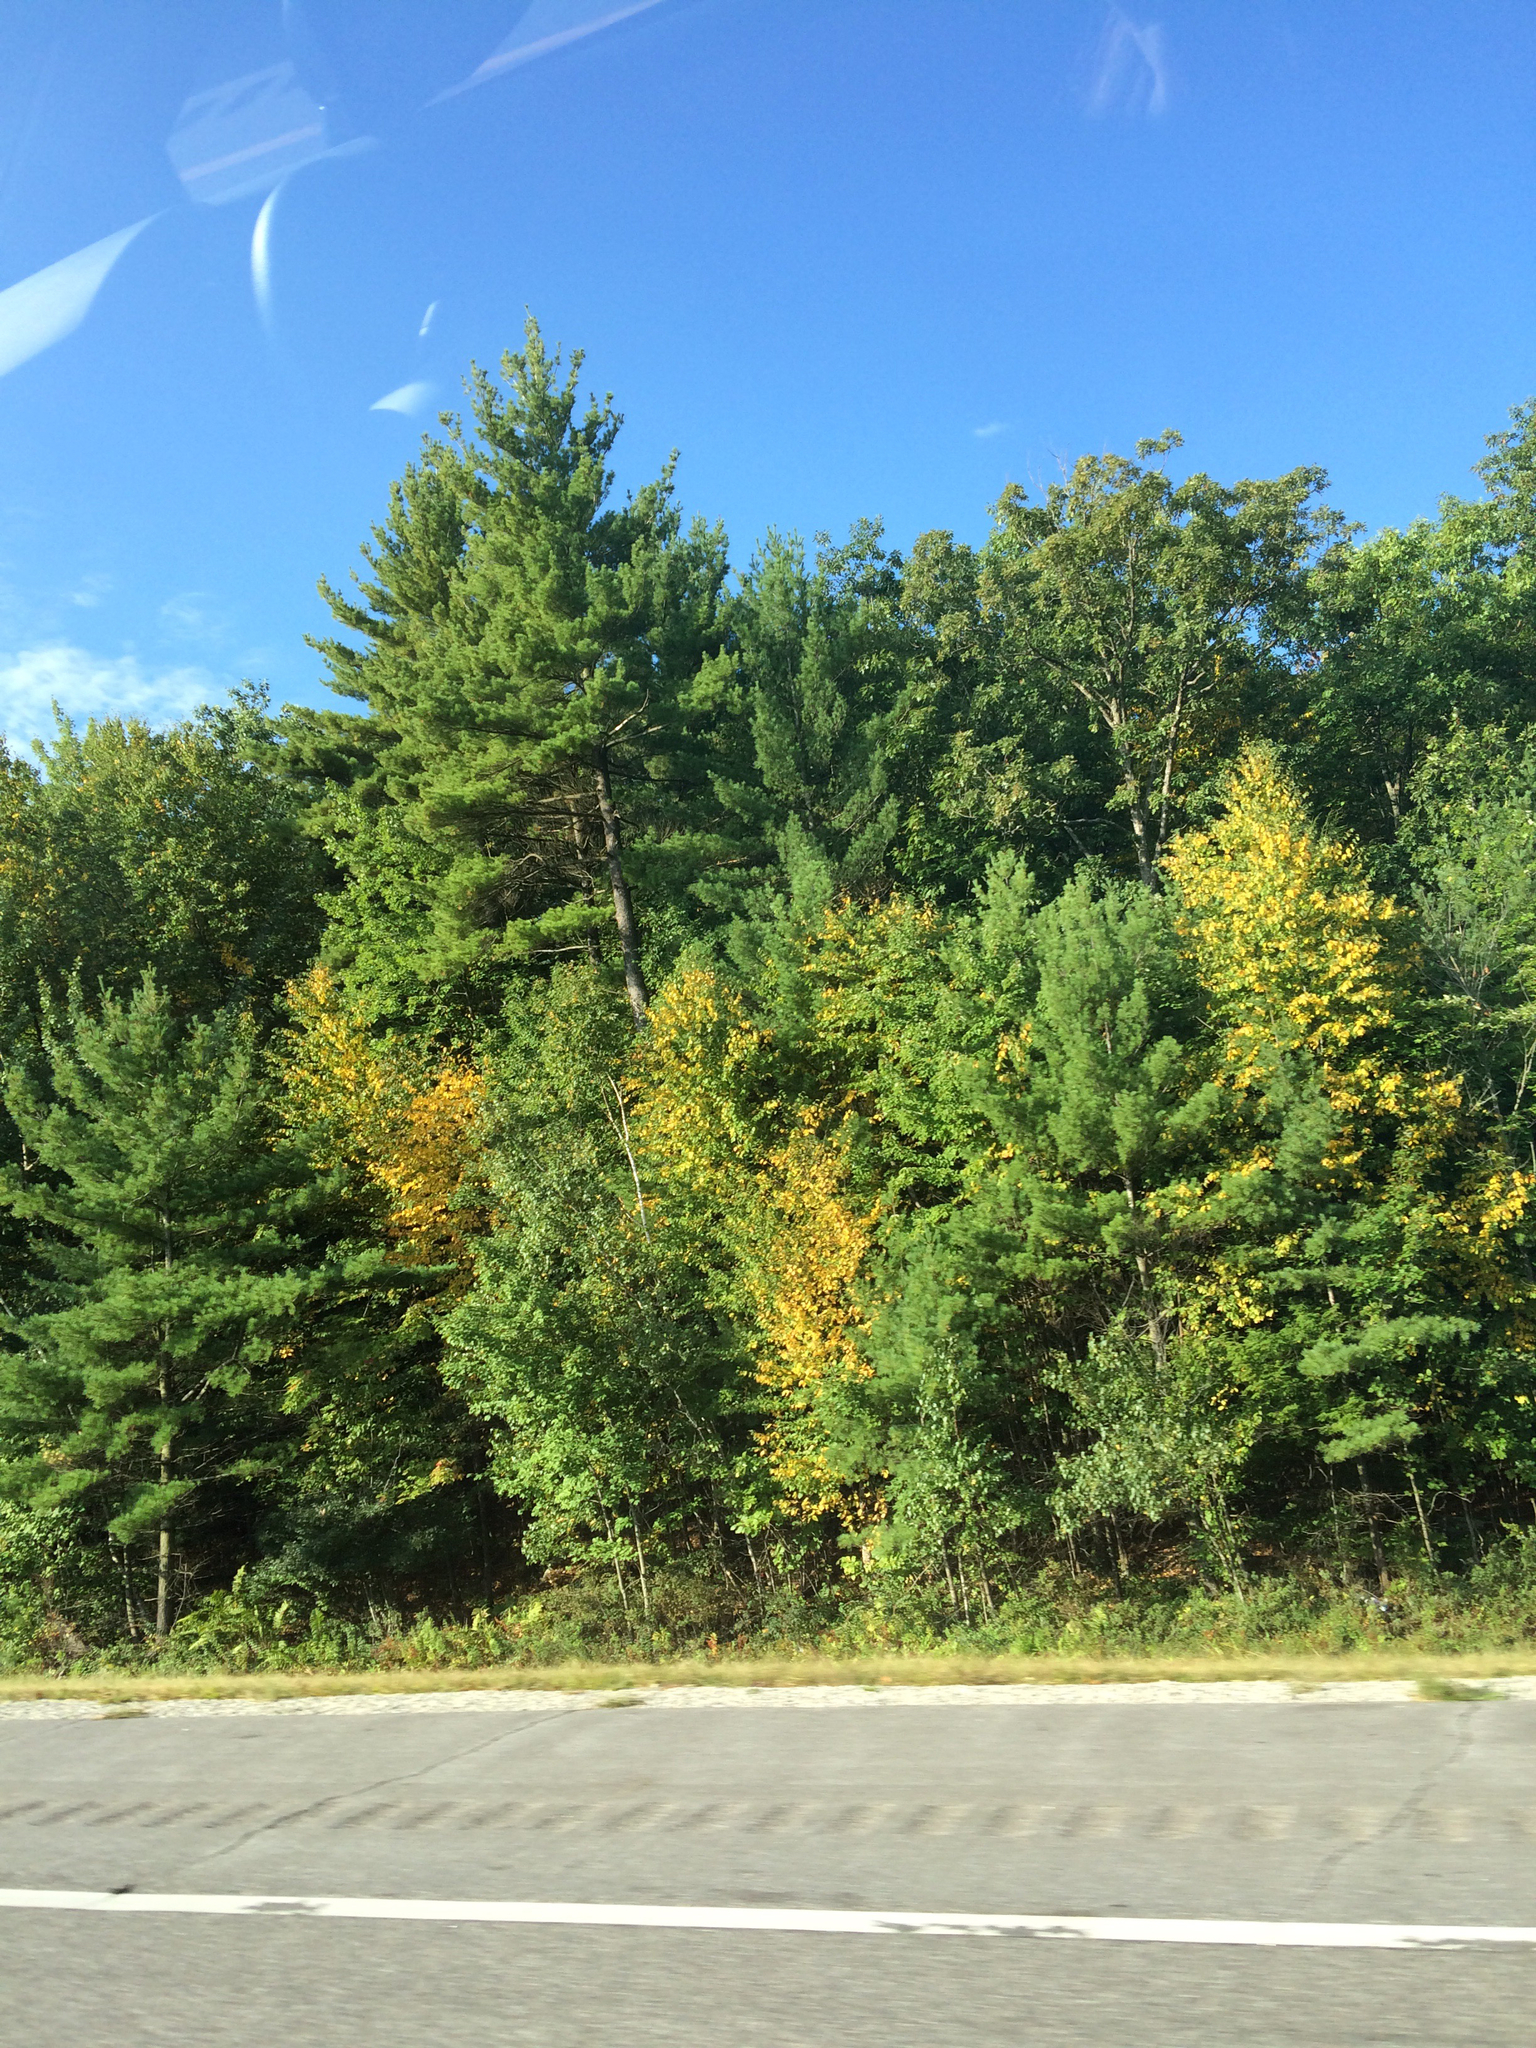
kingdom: Plantae
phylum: Tracheophyta
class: Pinopsida
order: Pinales
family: Pinaceae
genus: Pinus
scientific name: Pinus strobus
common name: Weymouth pine
